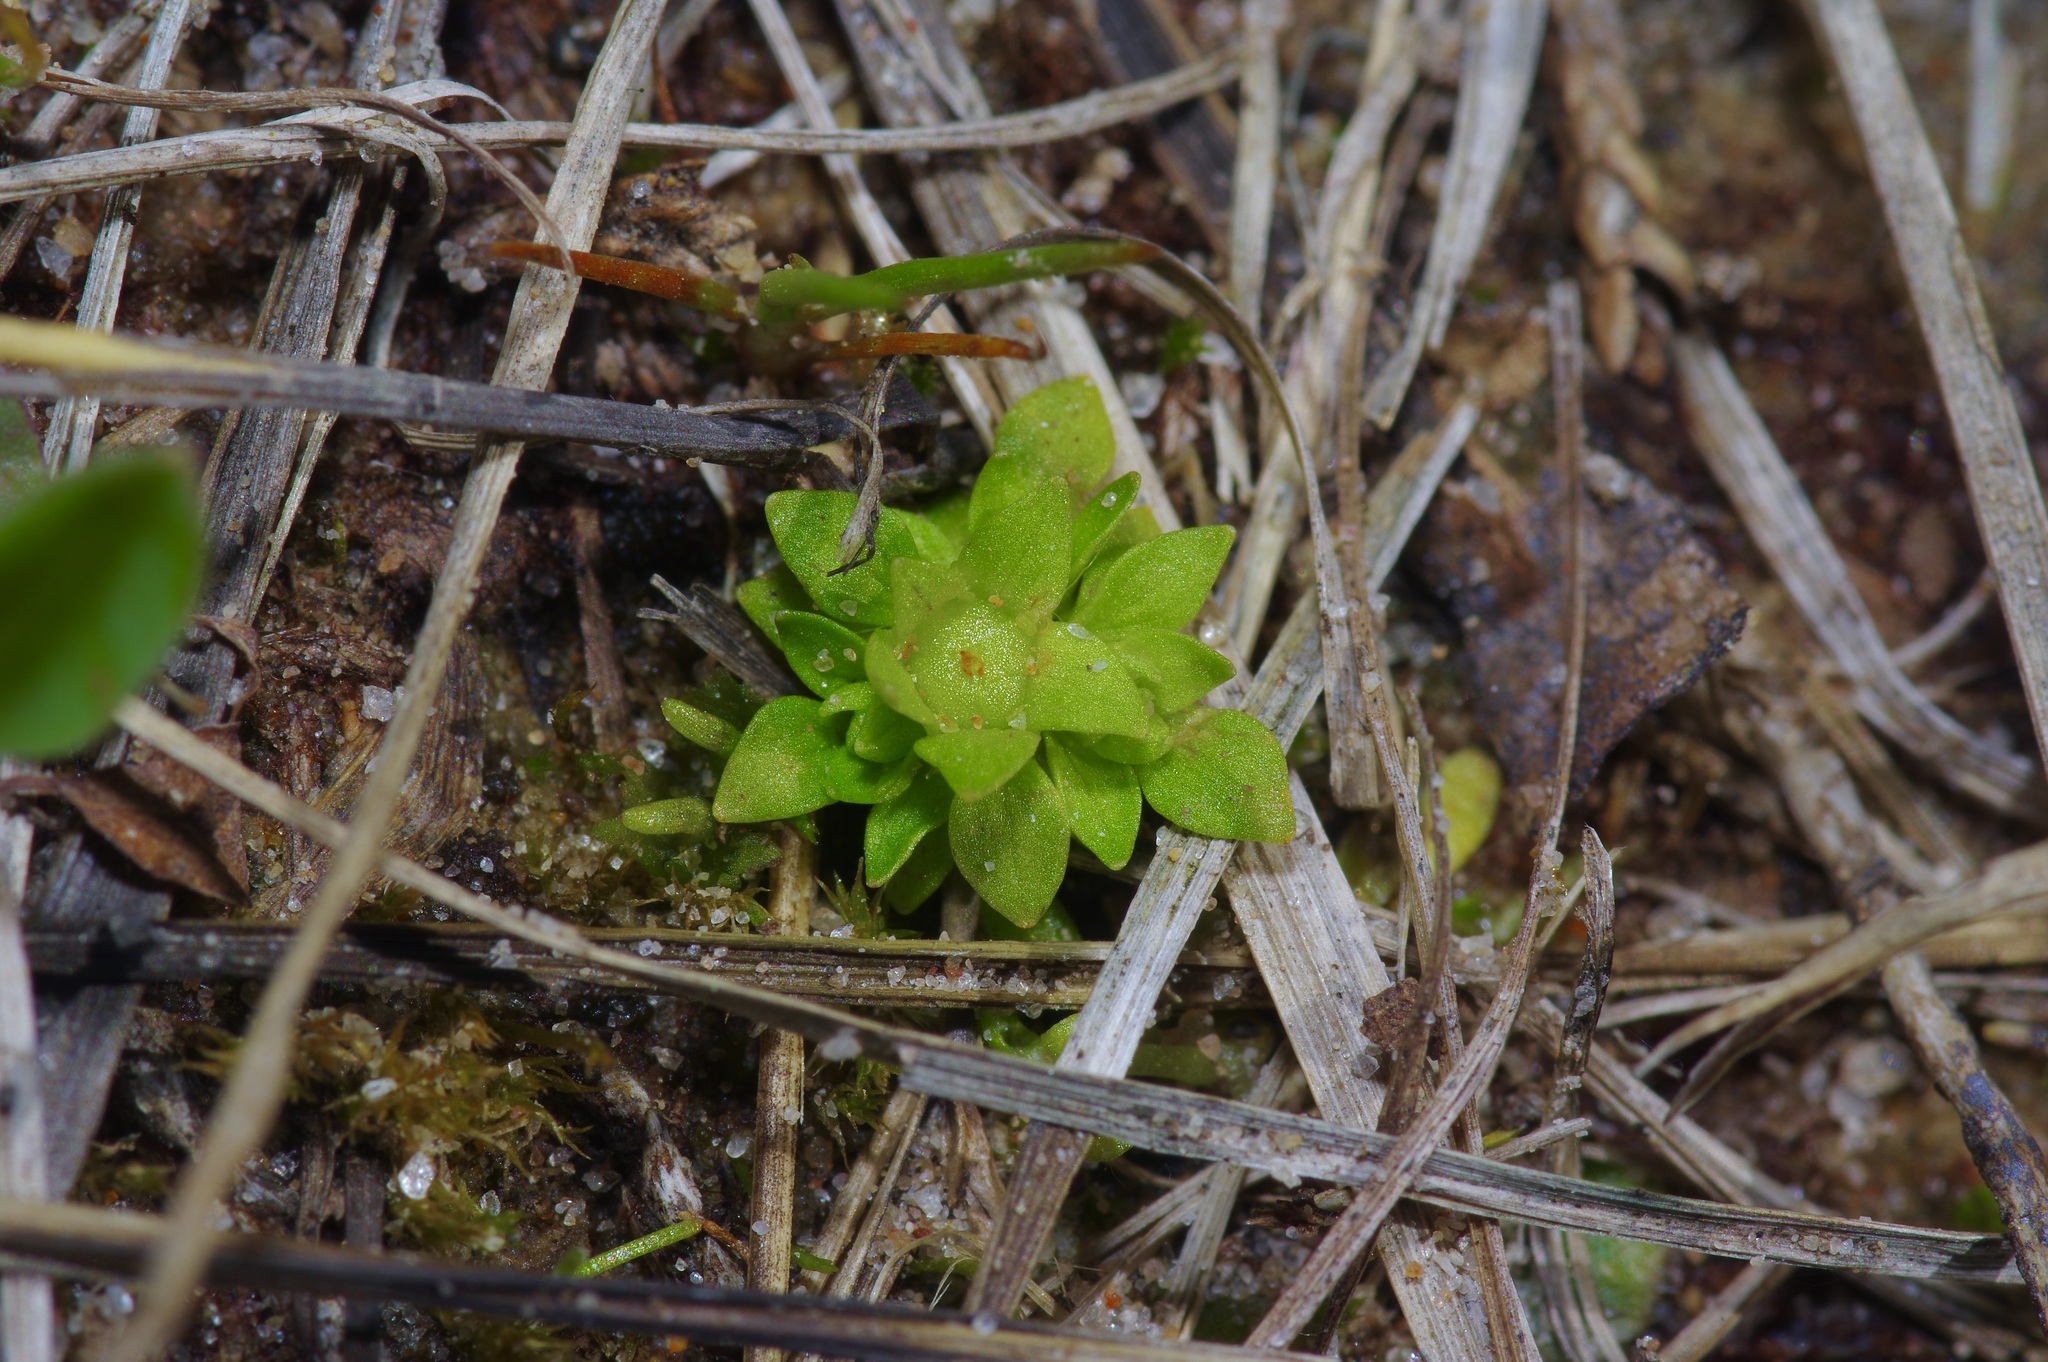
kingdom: Plantae
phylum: Tracheophyta
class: Magnoliopsida
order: Celastrales
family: Parnassiaceae
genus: Lepuropetalon
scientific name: Lepuropetalon spathulatum
